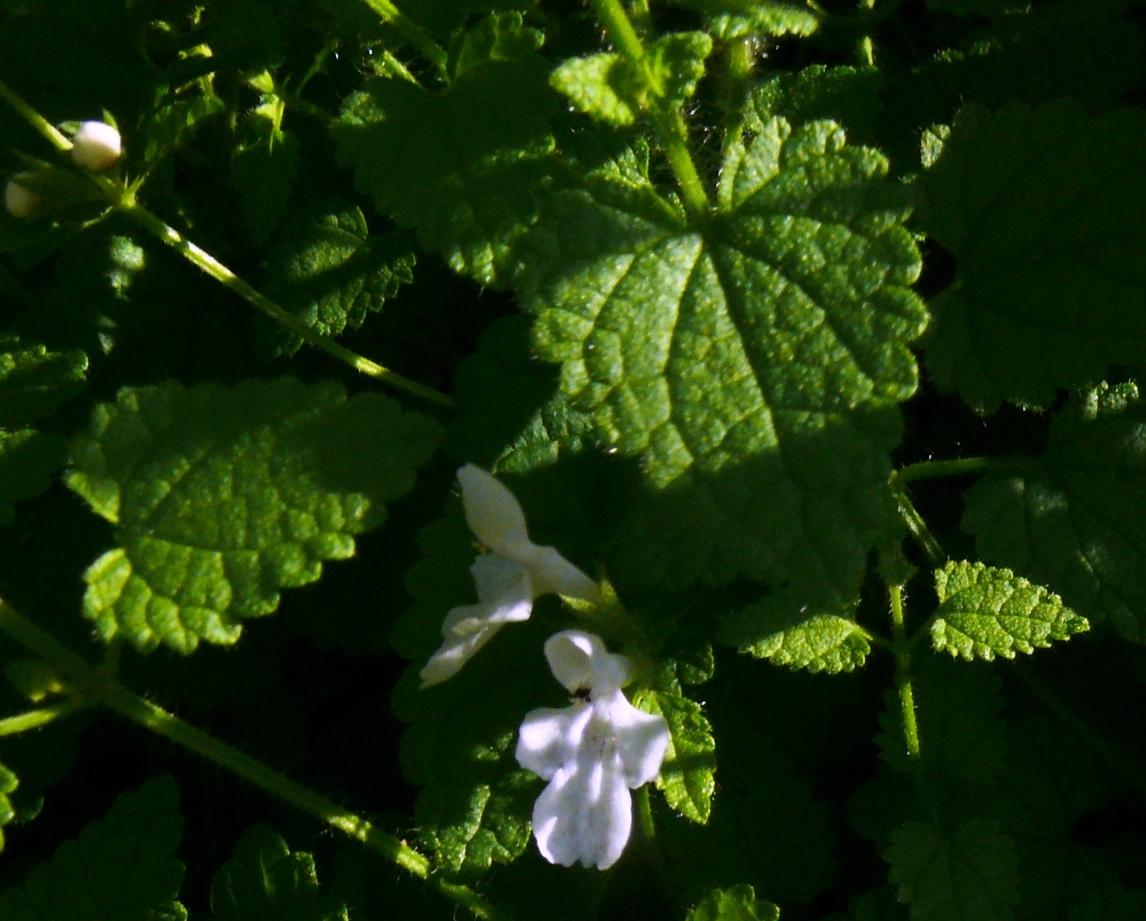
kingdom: Plantae
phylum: Tracheophyta
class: Magnoliopsida
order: Lamiales
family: Lamiaceae
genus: Stachys
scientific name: Stachys aethiopica
